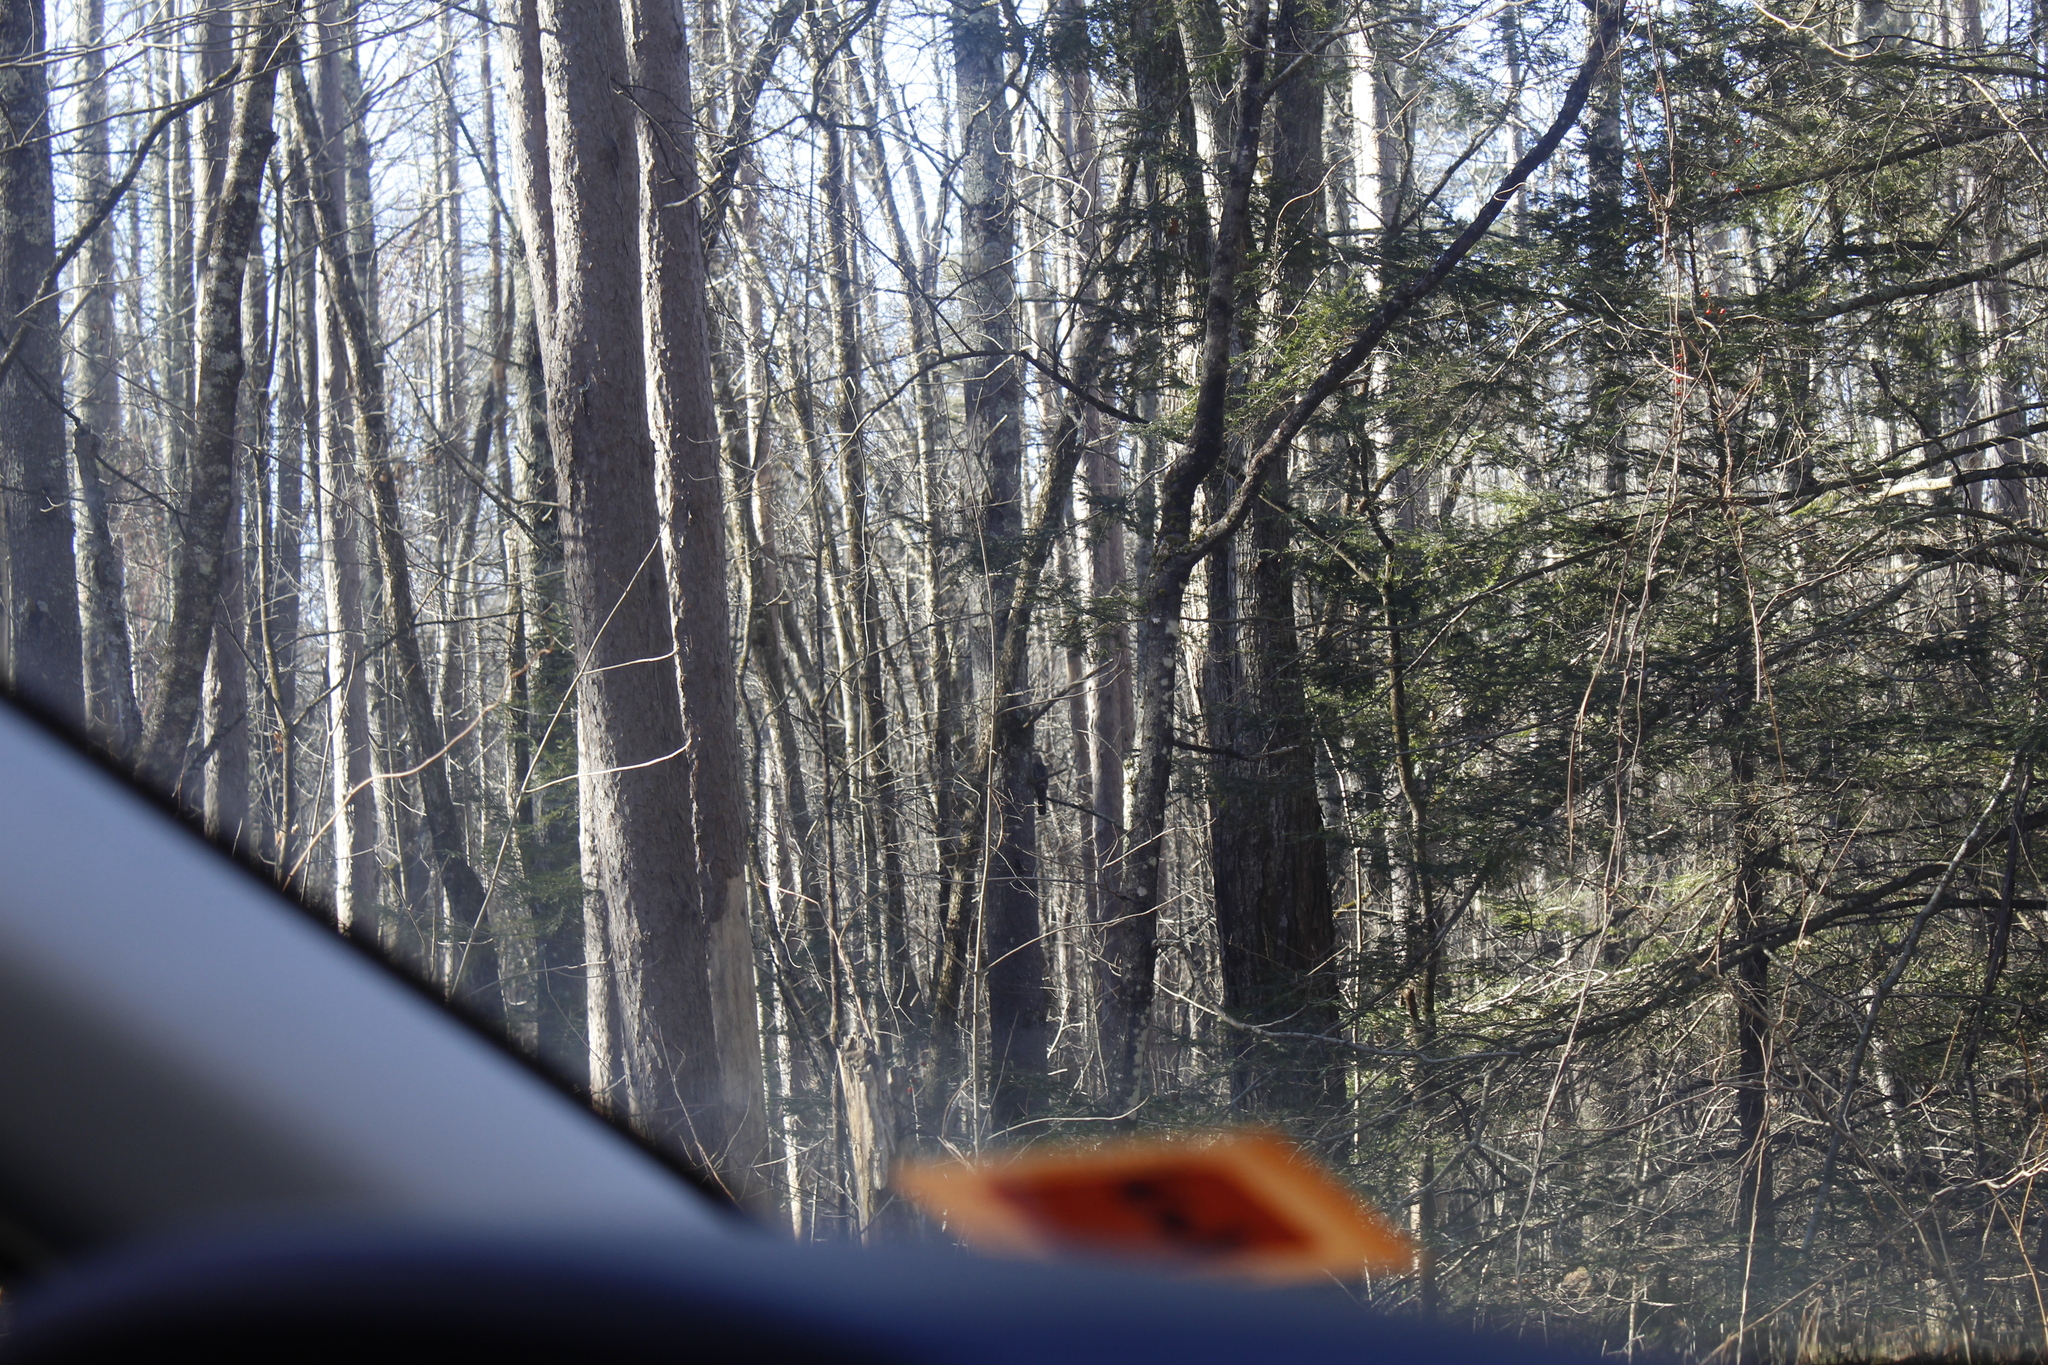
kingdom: Animalia
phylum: Chordata
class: Aves
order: Accipitriformes
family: Accipitridae
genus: Accipiter
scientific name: Accipiter cooperii
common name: Cooper's hawk
